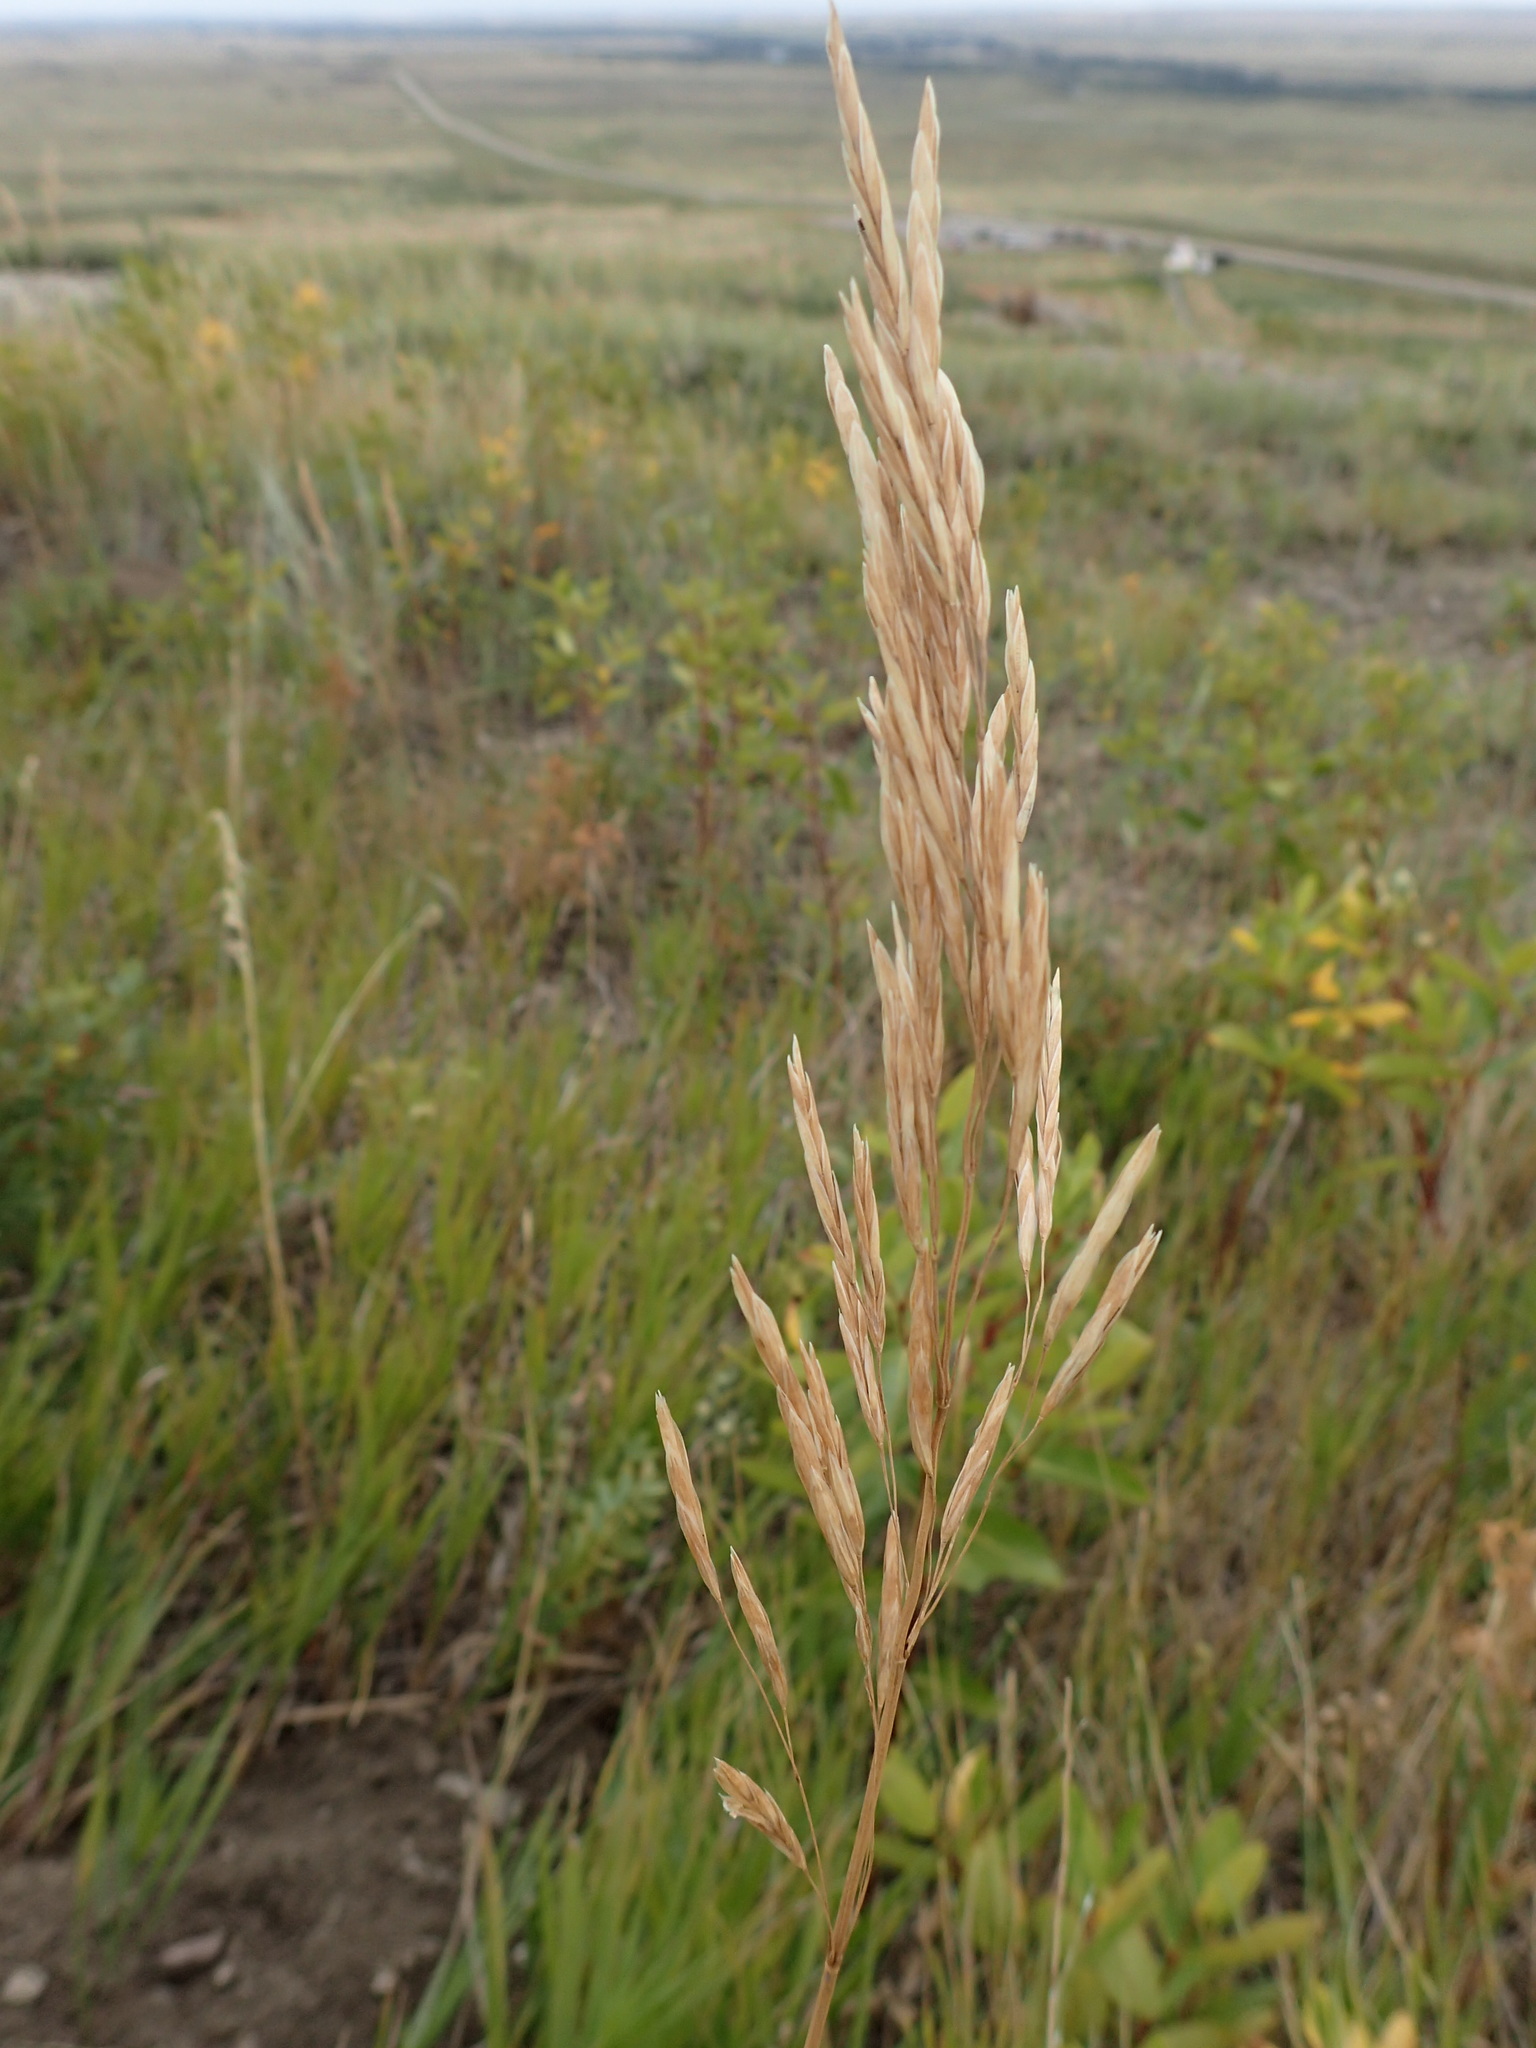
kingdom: Plantae
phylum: Tracheophyta
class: Liliopsida
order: Poales
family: Poaceae
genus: Bromus
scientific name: Bromus inermis
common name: Smooth brome
